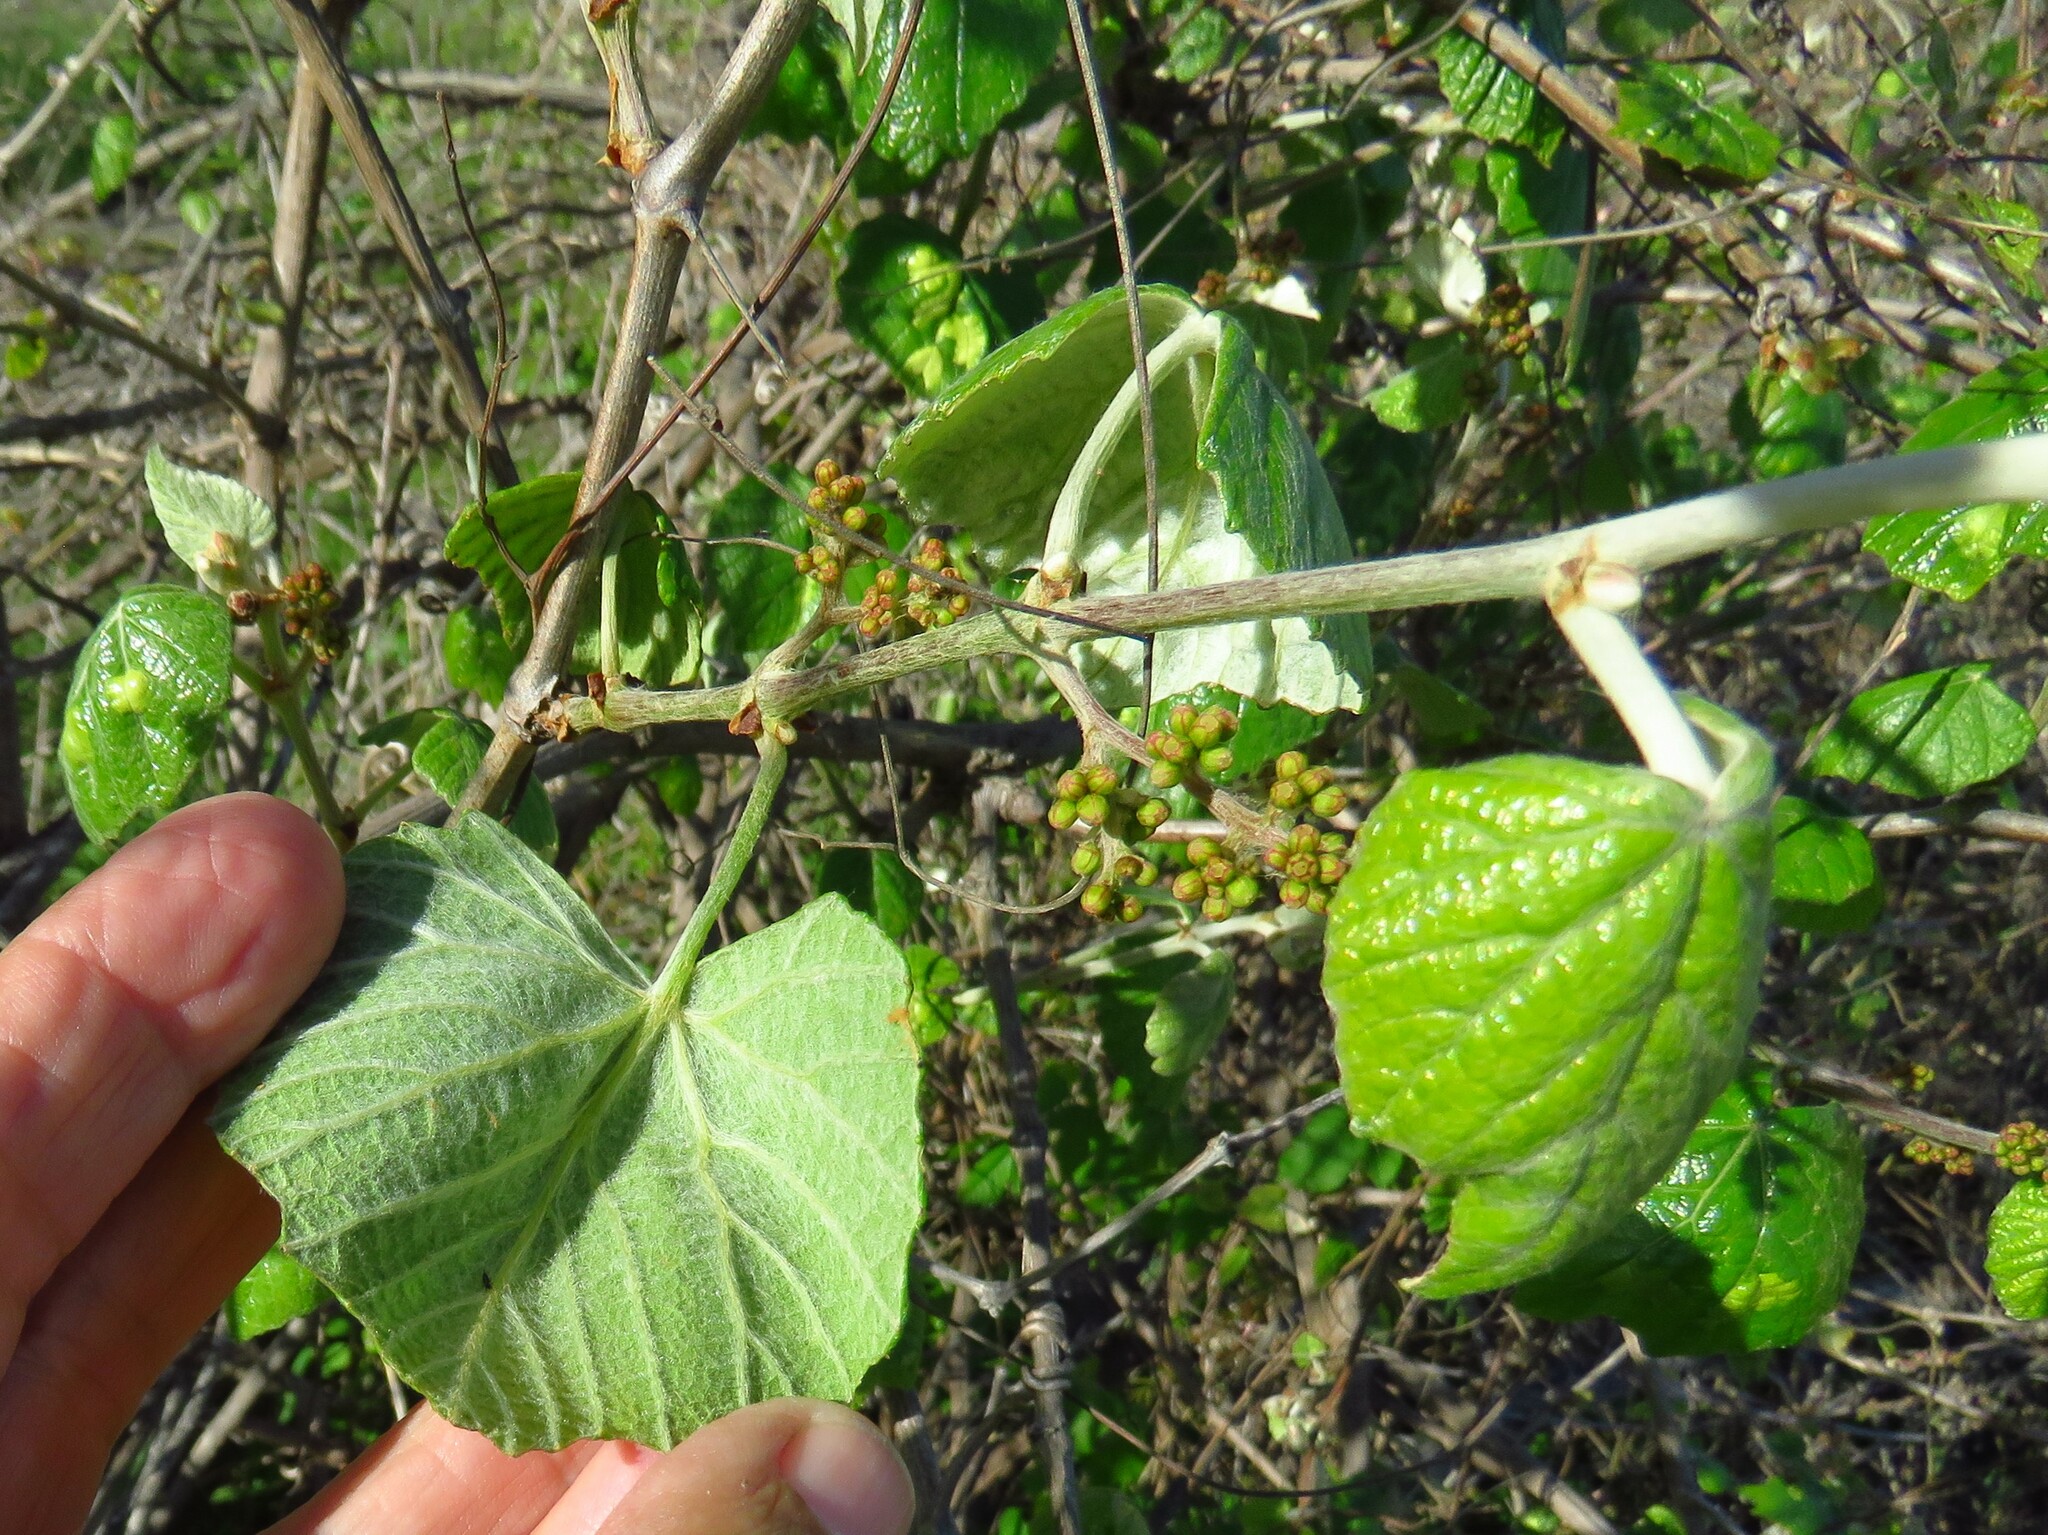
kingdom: Plantae
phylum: Tracheophyta
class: Magnoliopsida
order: Vitales
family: Vitaceae
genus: Vitis
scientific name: Vitis mustangensis
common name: Mustang grape
